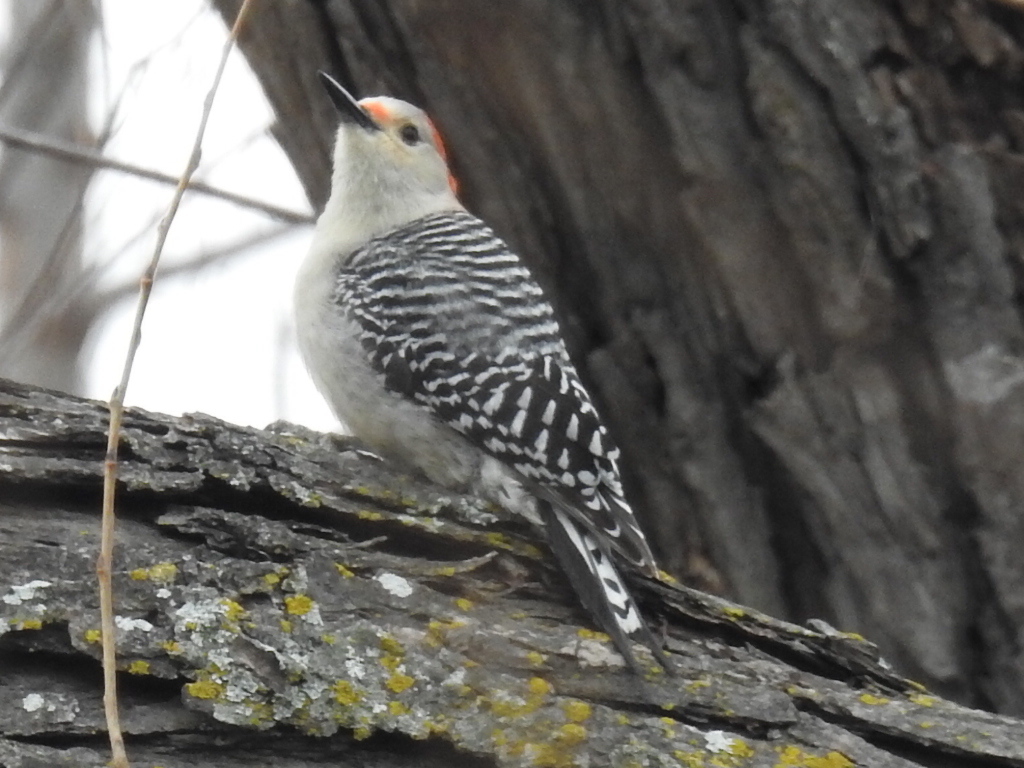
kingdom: Animalia
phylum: Chordata
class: Aves
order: Piciformes
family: Picidae
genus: Melanerpes
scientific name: Melanerpes carolinus
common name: Red-bellied woodpecker
